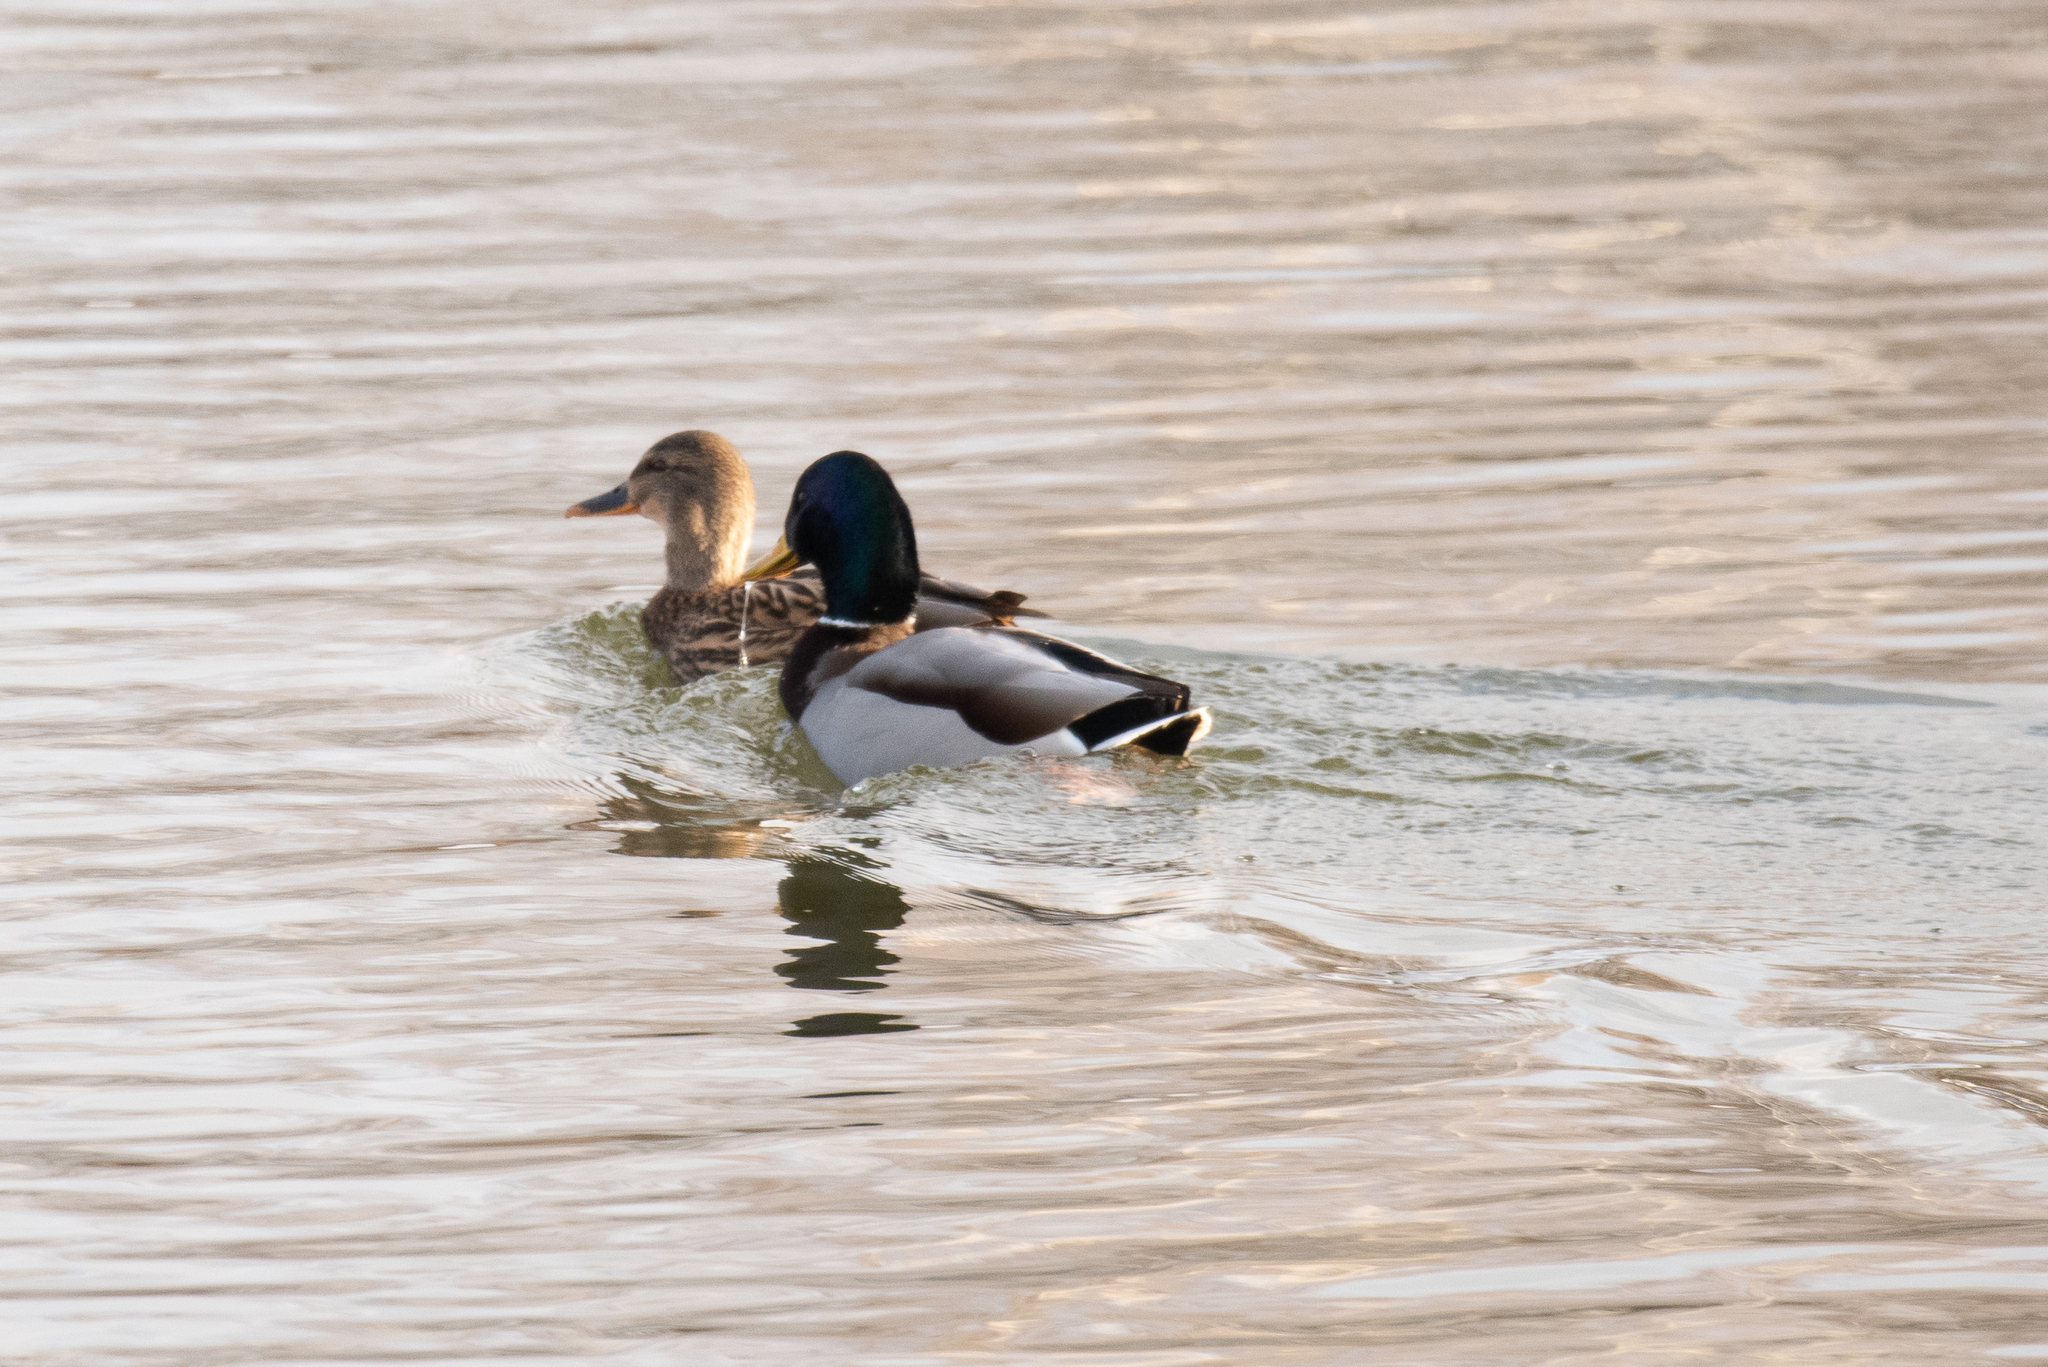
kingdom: Animalia
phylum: Chordata
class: Aves
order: Anseriformes
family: Anatidae
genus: Anas
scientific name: Anas platyrhynchos
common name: Mallard
